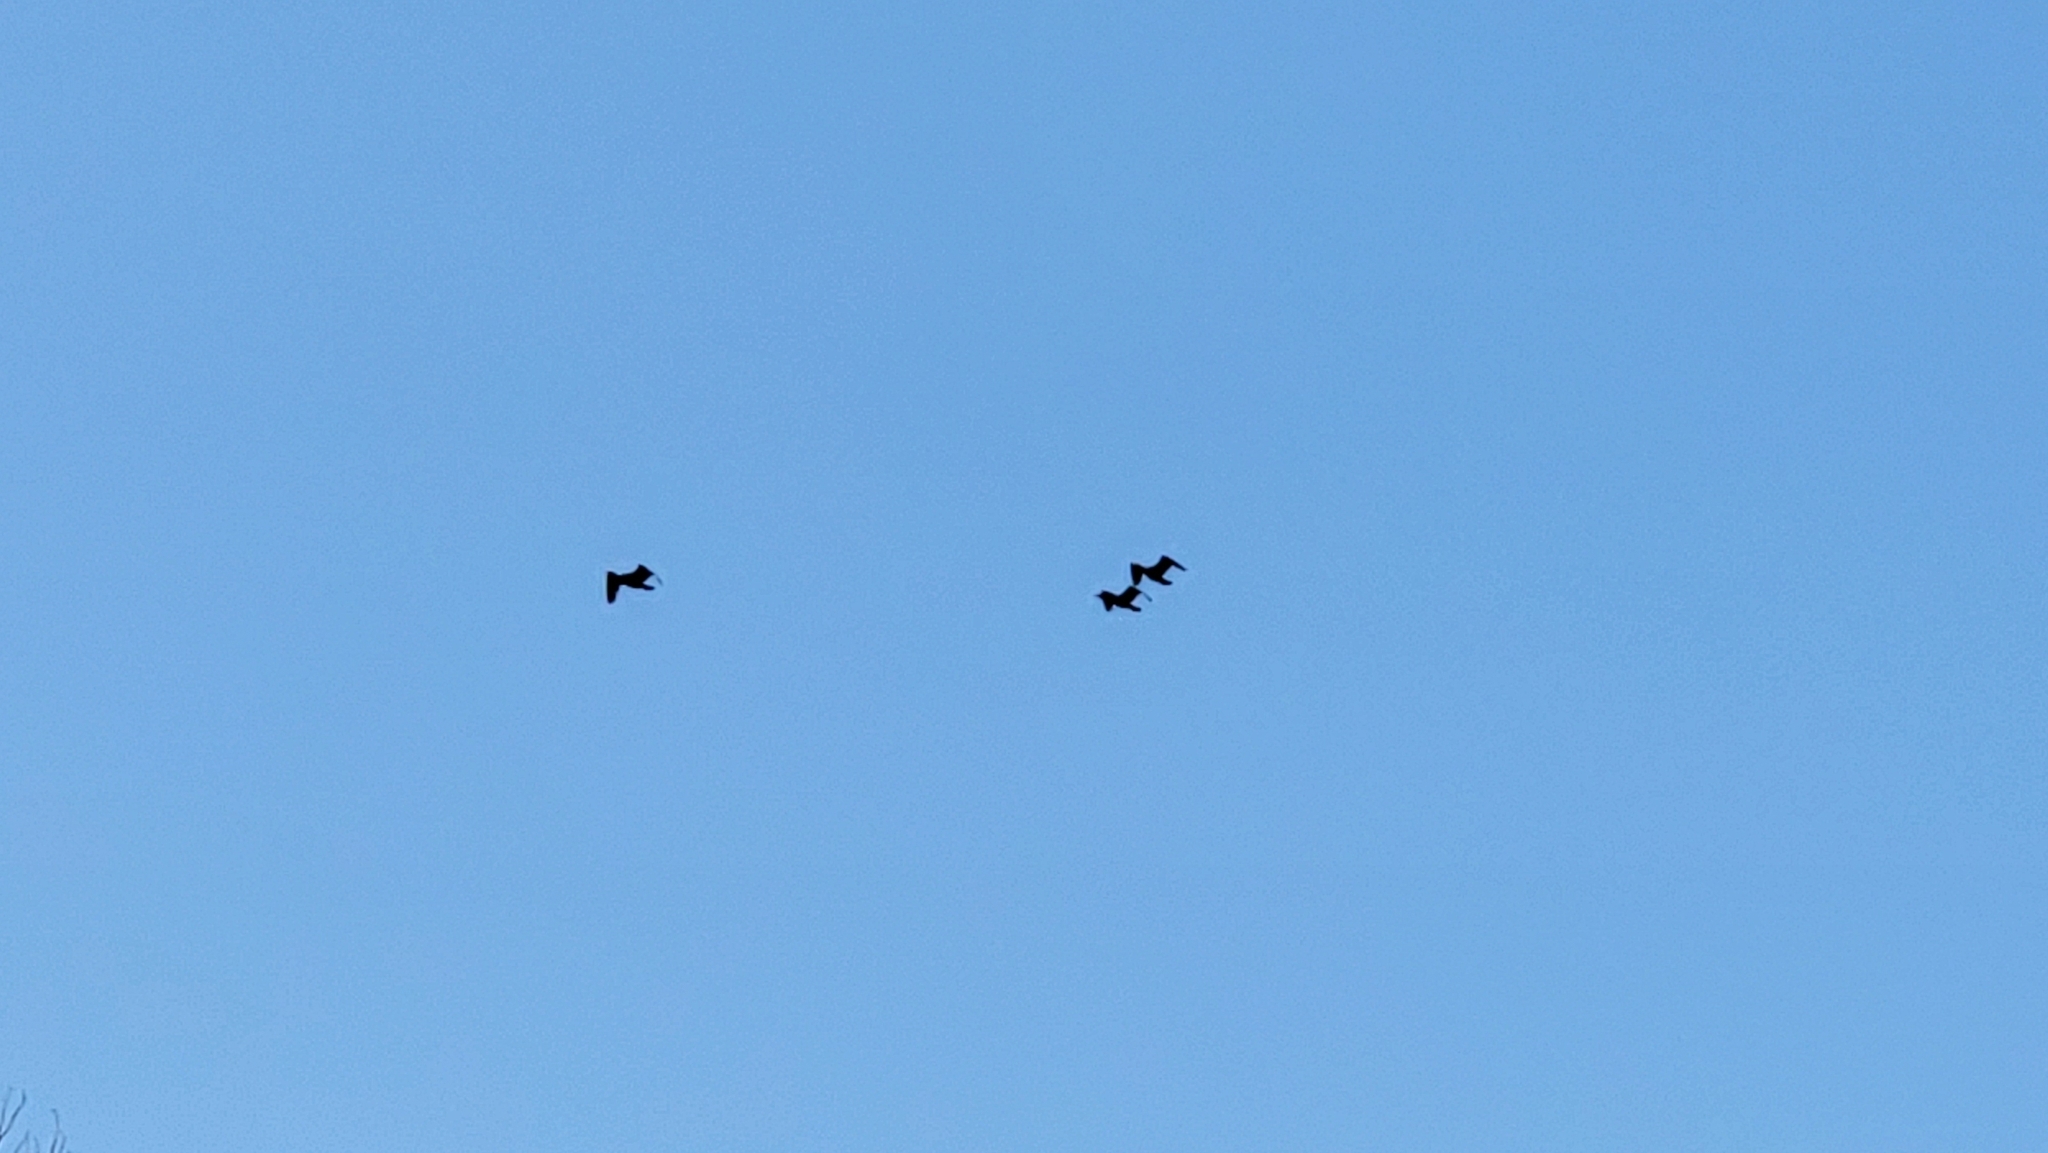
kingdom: Animalia
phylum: Chordata
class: Aves
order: Suliformes
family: Phalacrocoracidae
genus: Phalacrocorax
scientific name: Phalacrocorax auritus
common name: Double-crested cormorant
